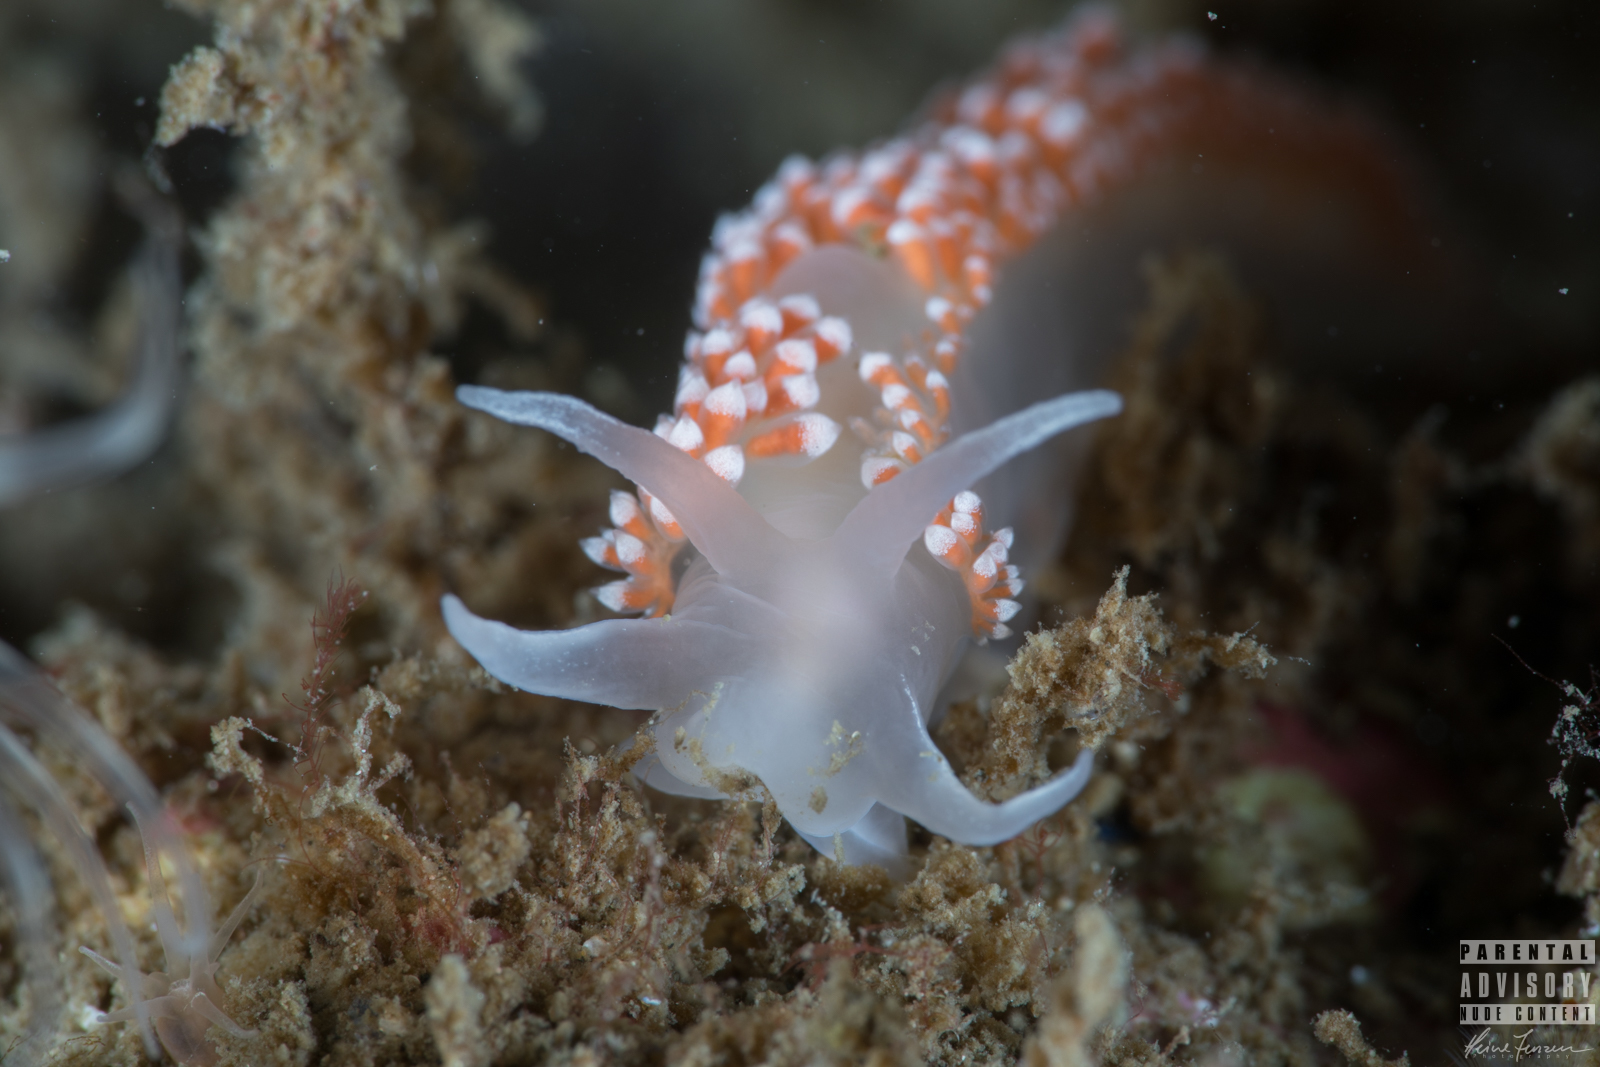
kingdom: Animalia
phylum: Mollusca
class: Gastropoda
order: Nudibranchia
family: Coryphellidae
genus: Coryphella
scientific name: Coryphella verrucosa
